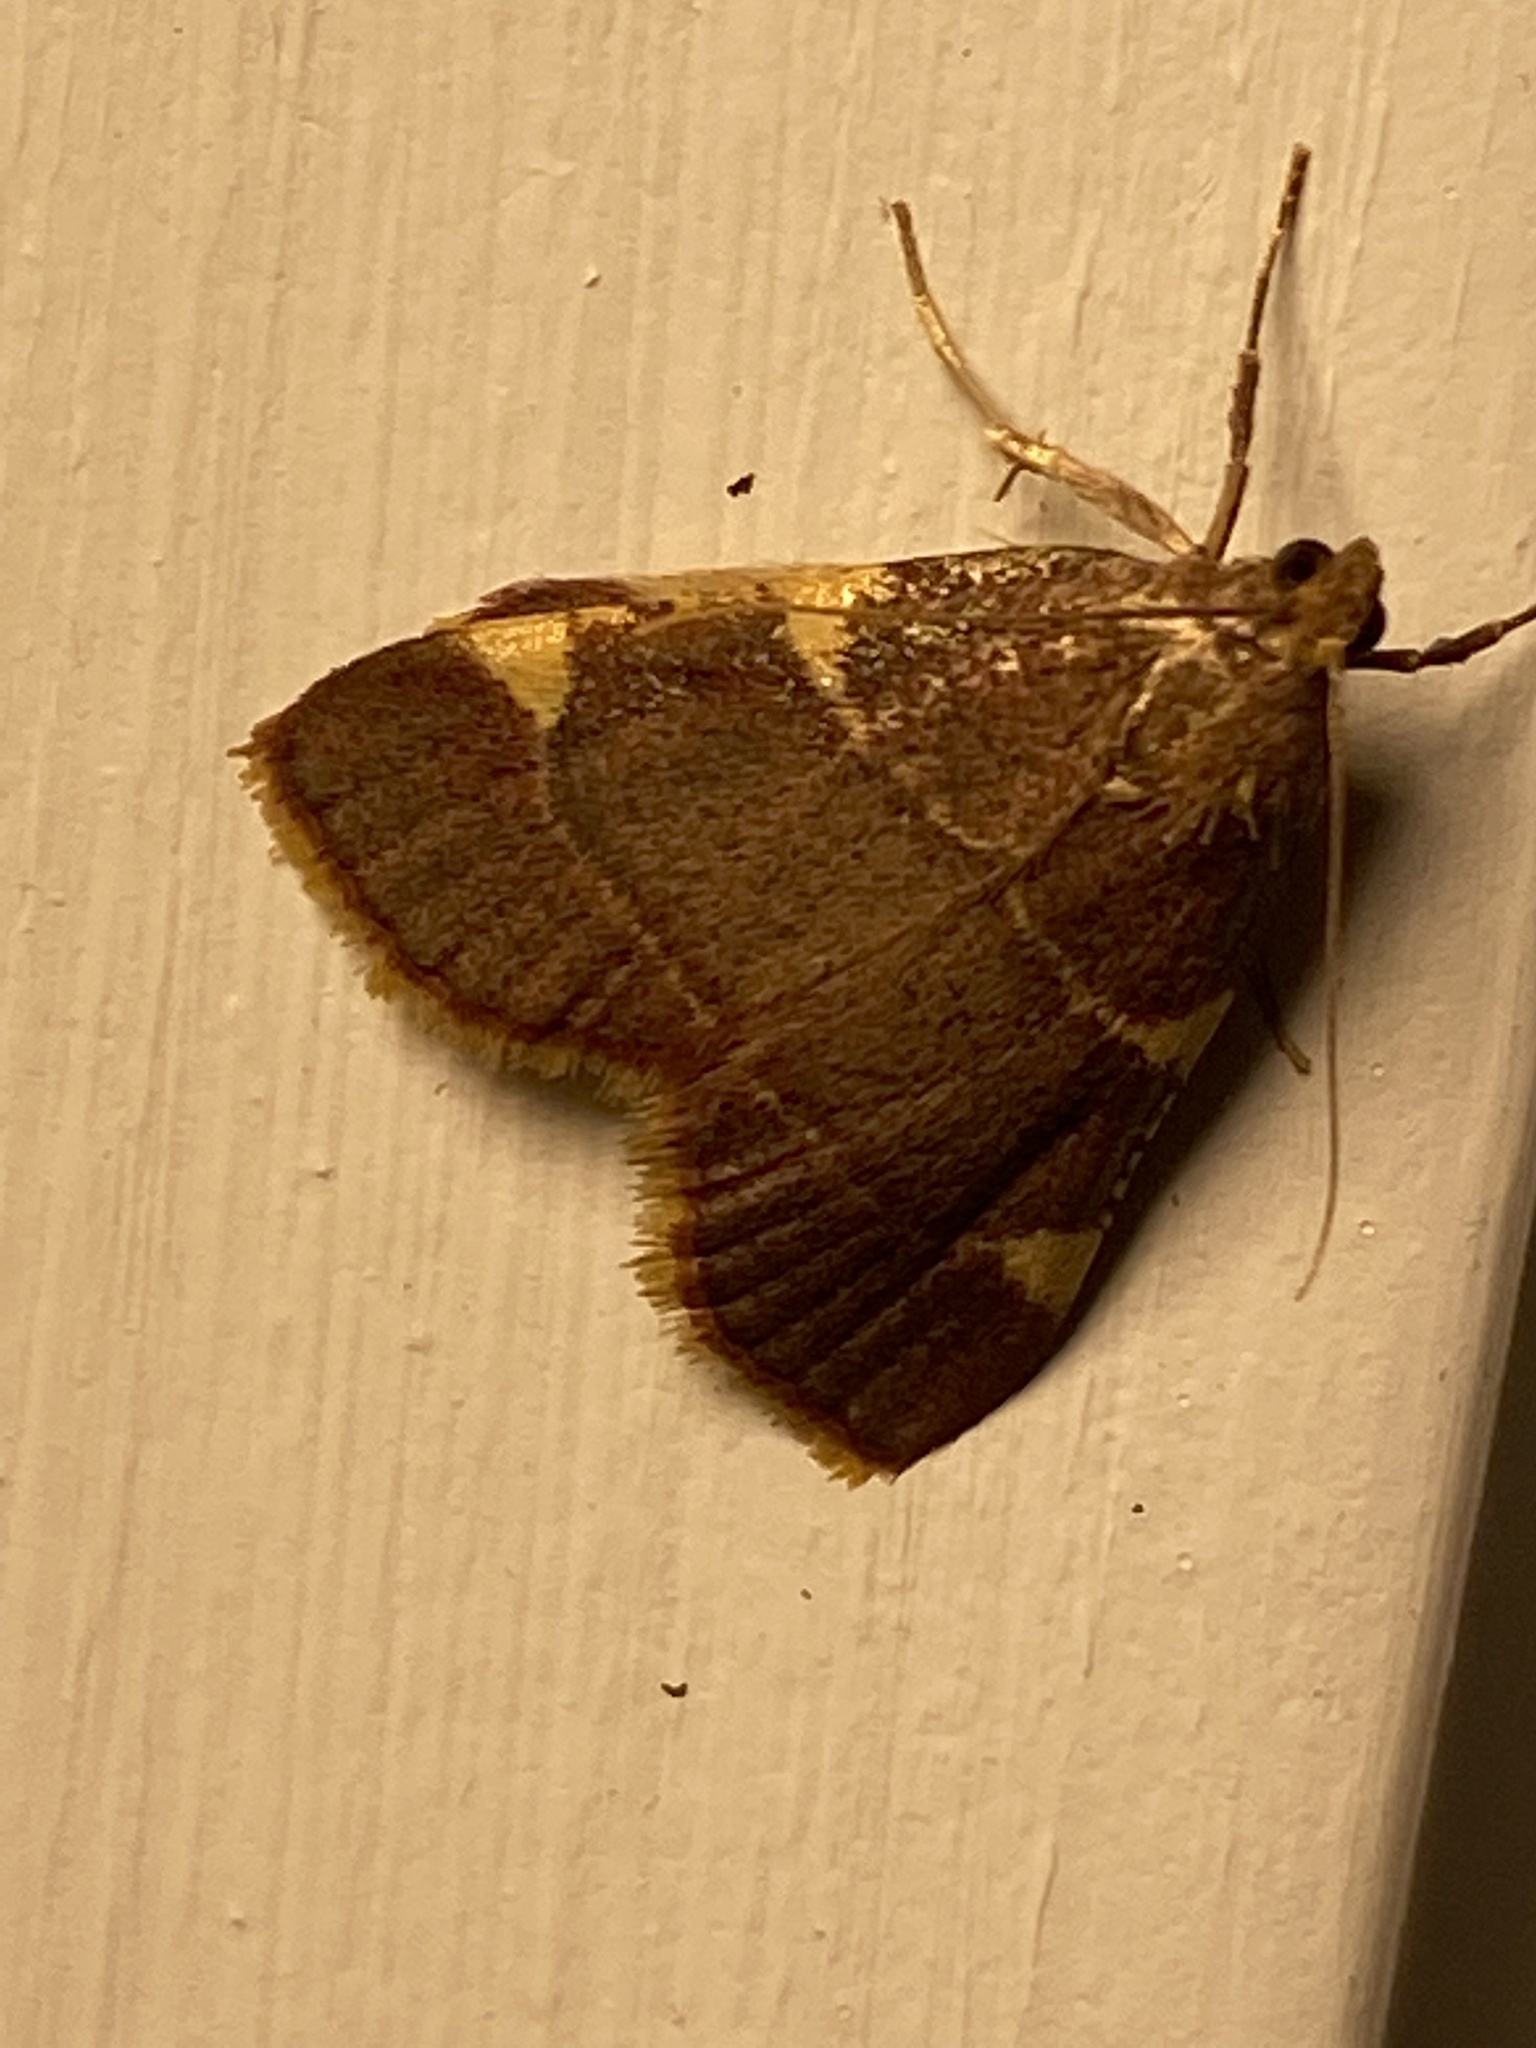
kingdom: Animalia
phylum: Arthropoda
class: Insecta
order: Lepidoptera
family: Pyralidae
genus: Hypsopygia
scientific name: Hypsopygia olinalis
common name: Yellow-fringed dolichomia moth
